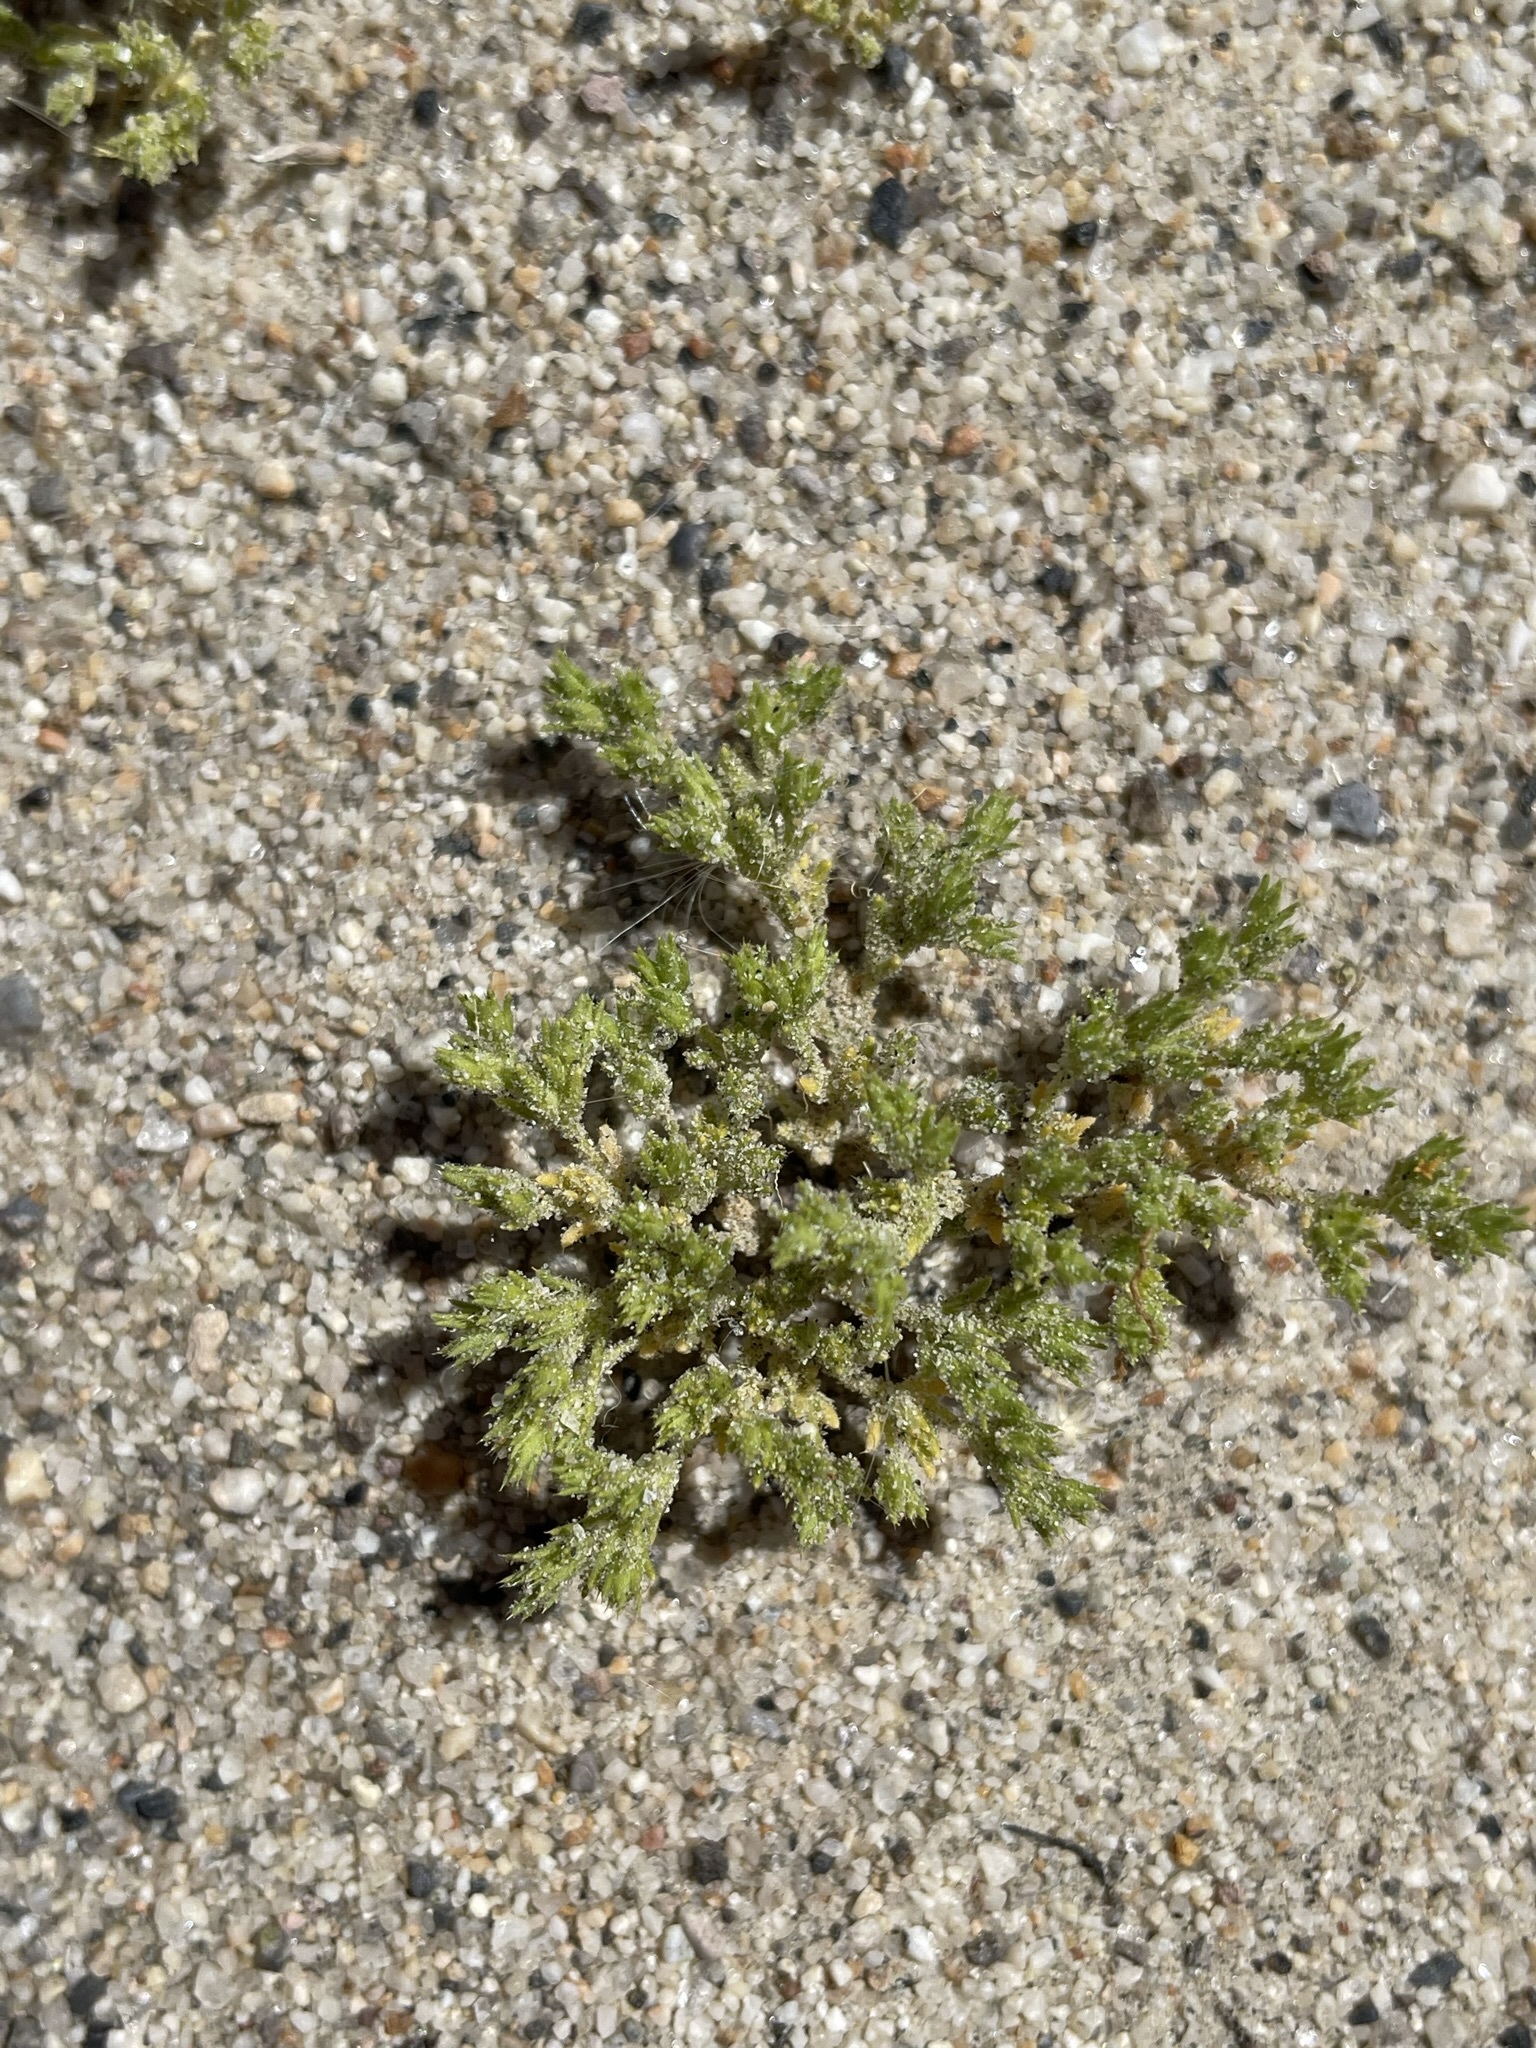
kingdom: Plantae
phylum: Tracheophyta
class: Magnoliopsida
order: Caryophyllales
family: Caryophyllaceae
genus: Loeflingia
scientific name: Loeflingia squarrosa
